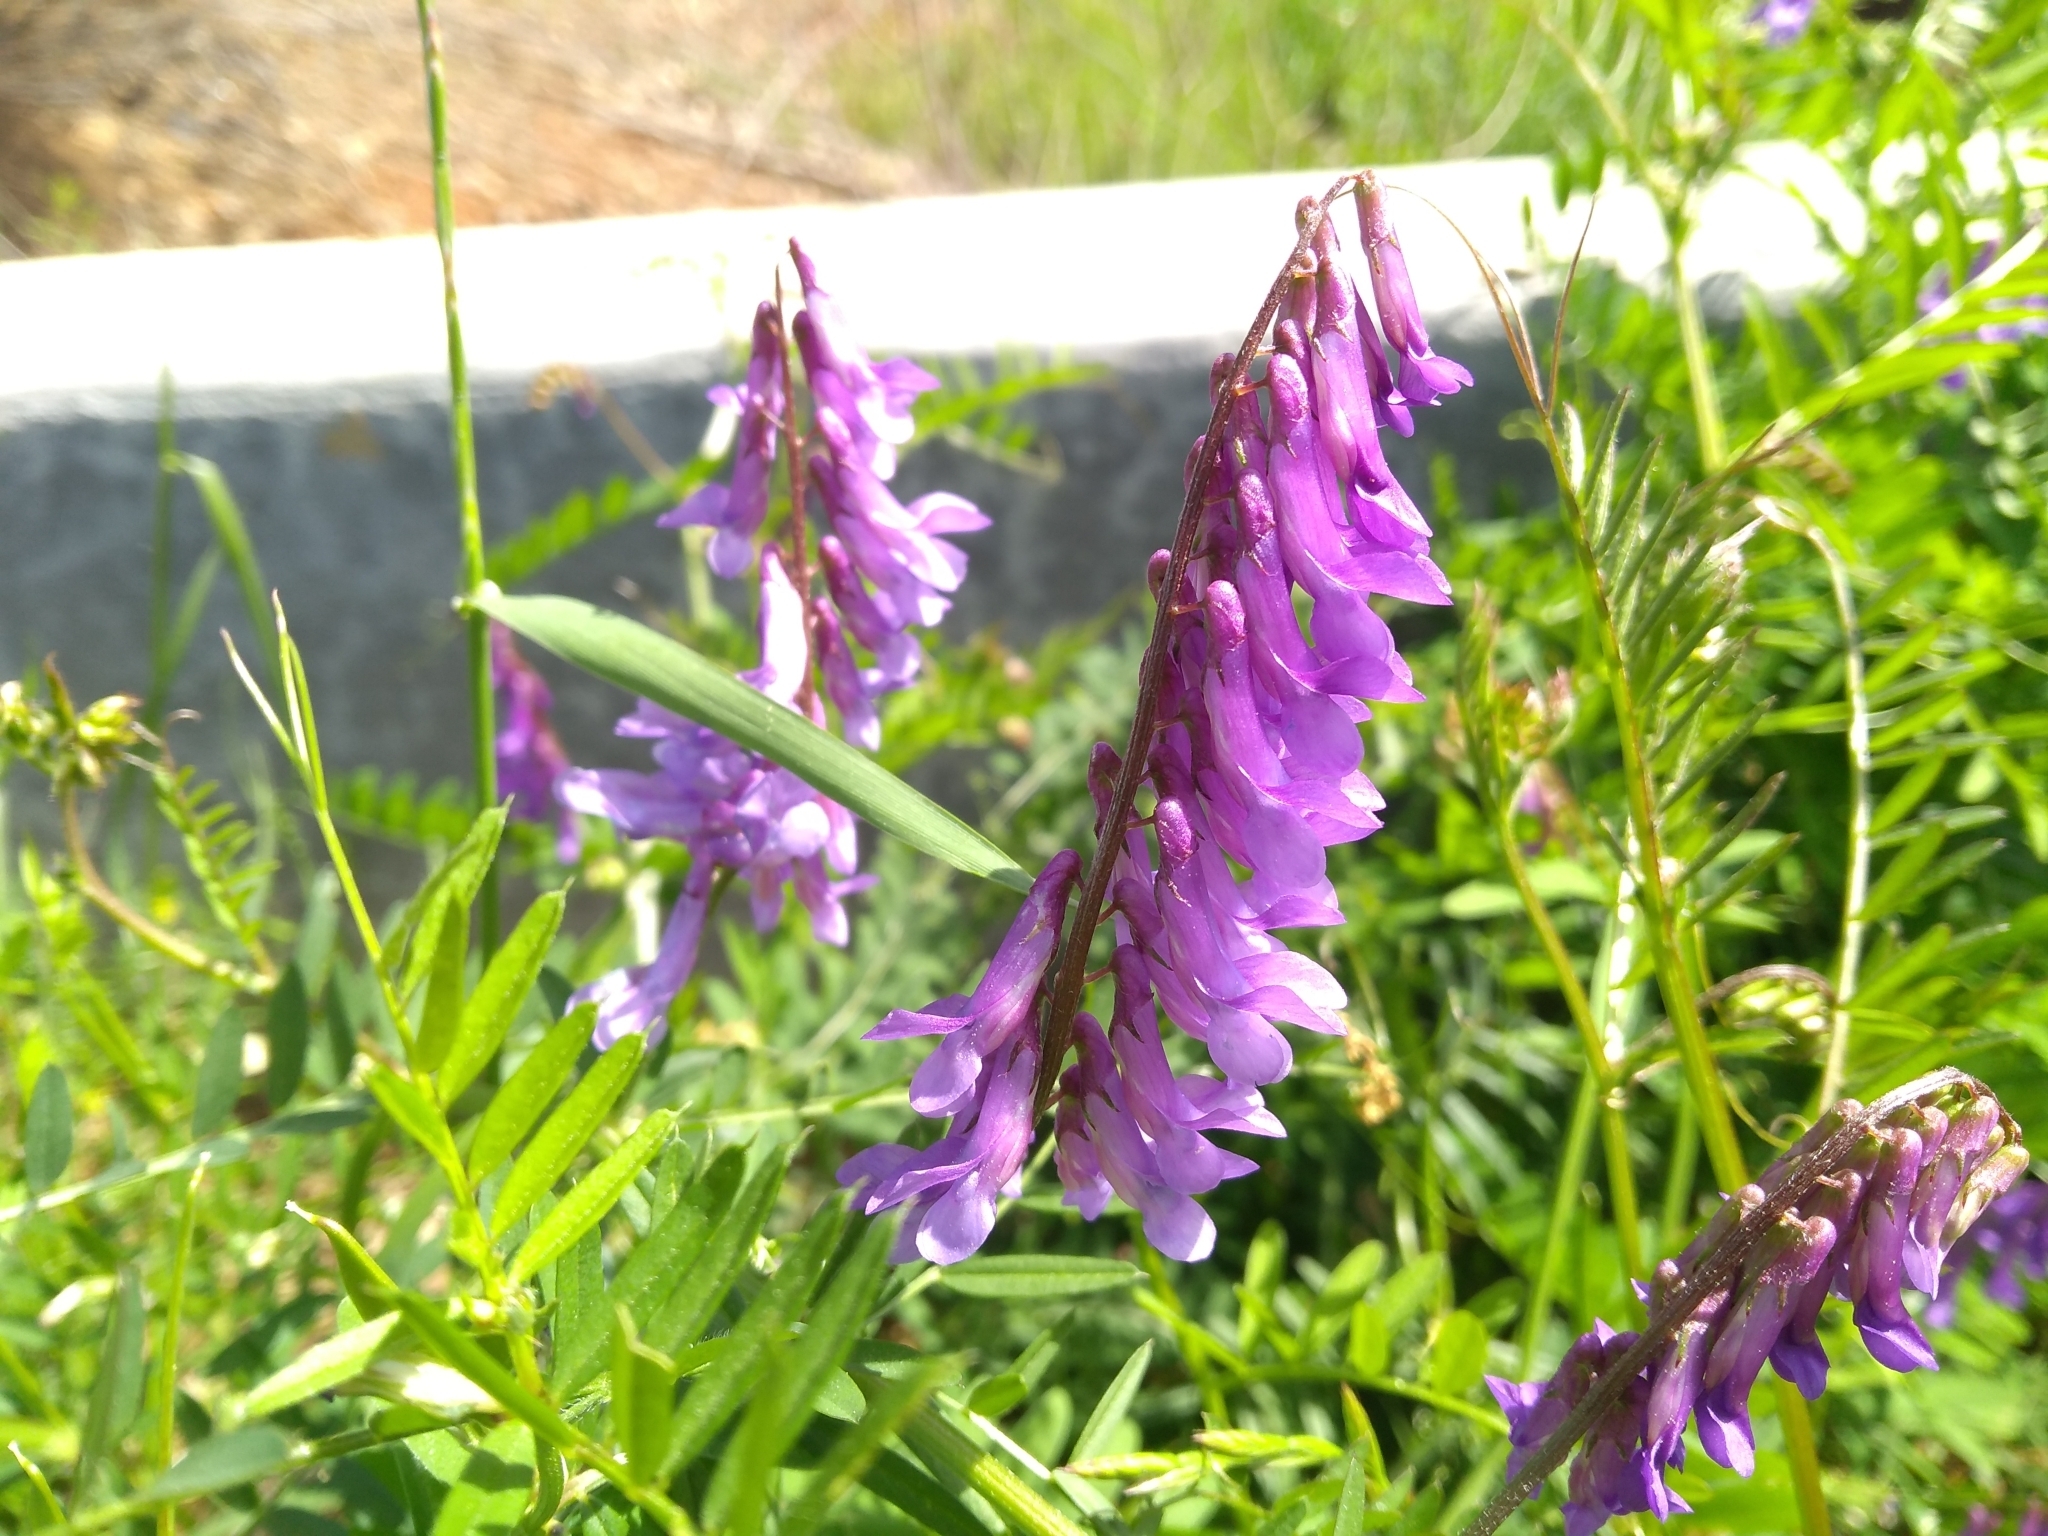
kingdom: Plantae
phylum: Tracheophyta
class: Magnoliopsida
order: Fabales
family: Fabaceae
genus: Vicia
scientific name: Vicia villosa
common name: Fodder vetch
